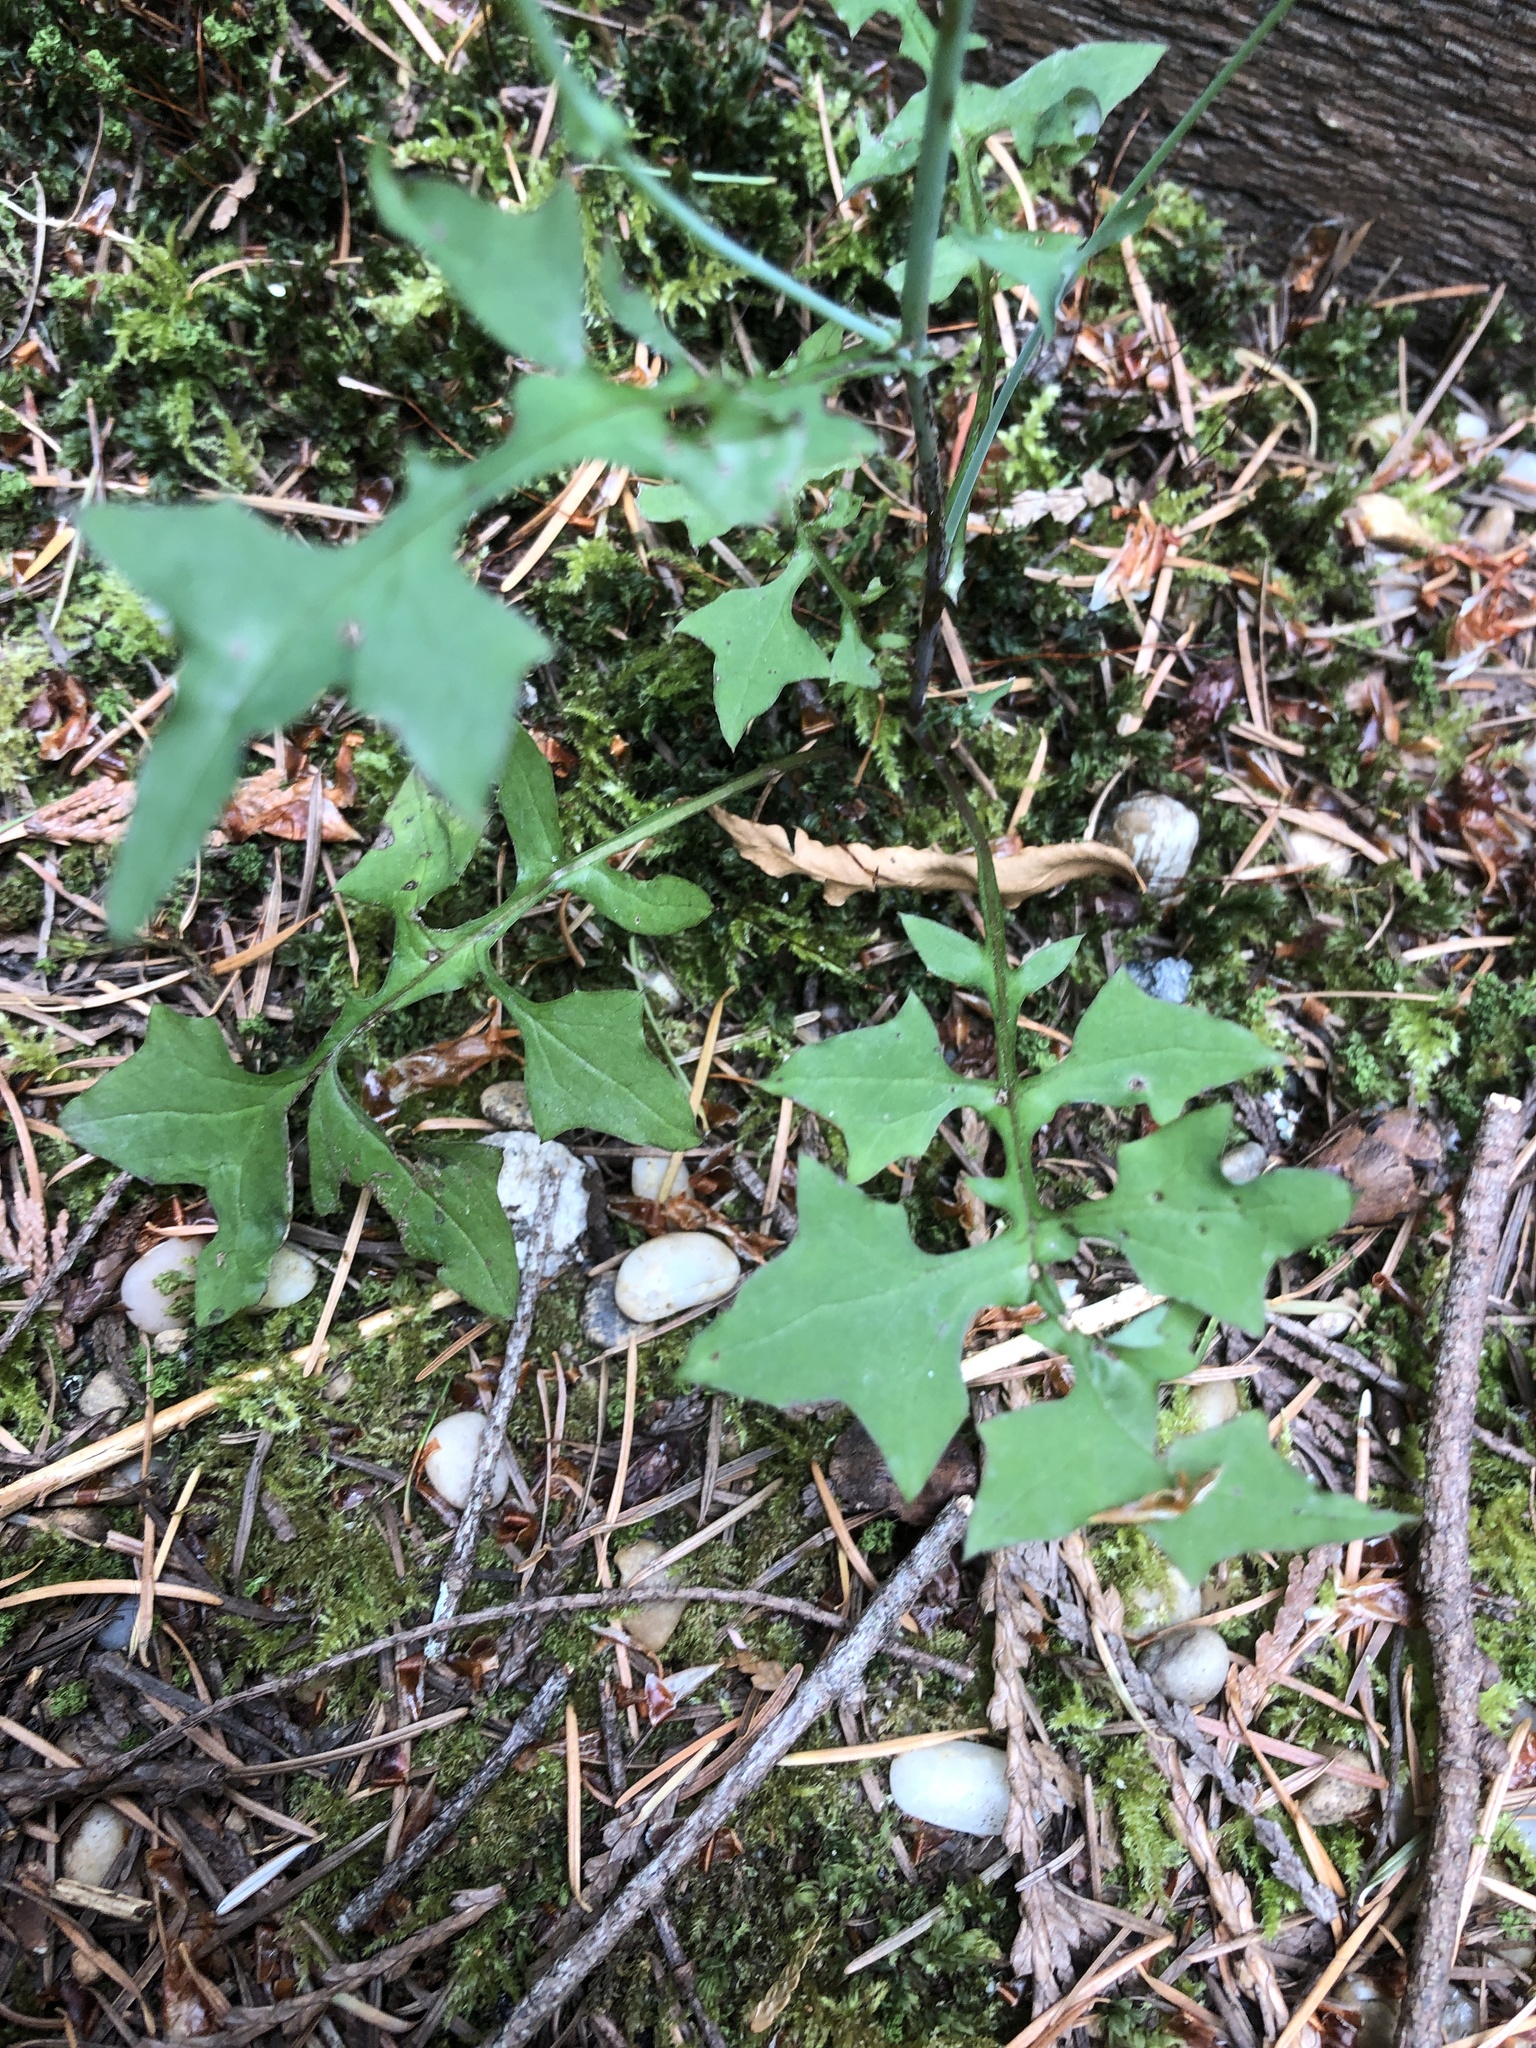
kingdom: Plantae
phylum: Tracheophyta
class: Magnoliopsida
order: Asterales
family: Asteraceae
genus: Mycelis
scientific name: Mycelis muralis
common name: Wall lettuce
